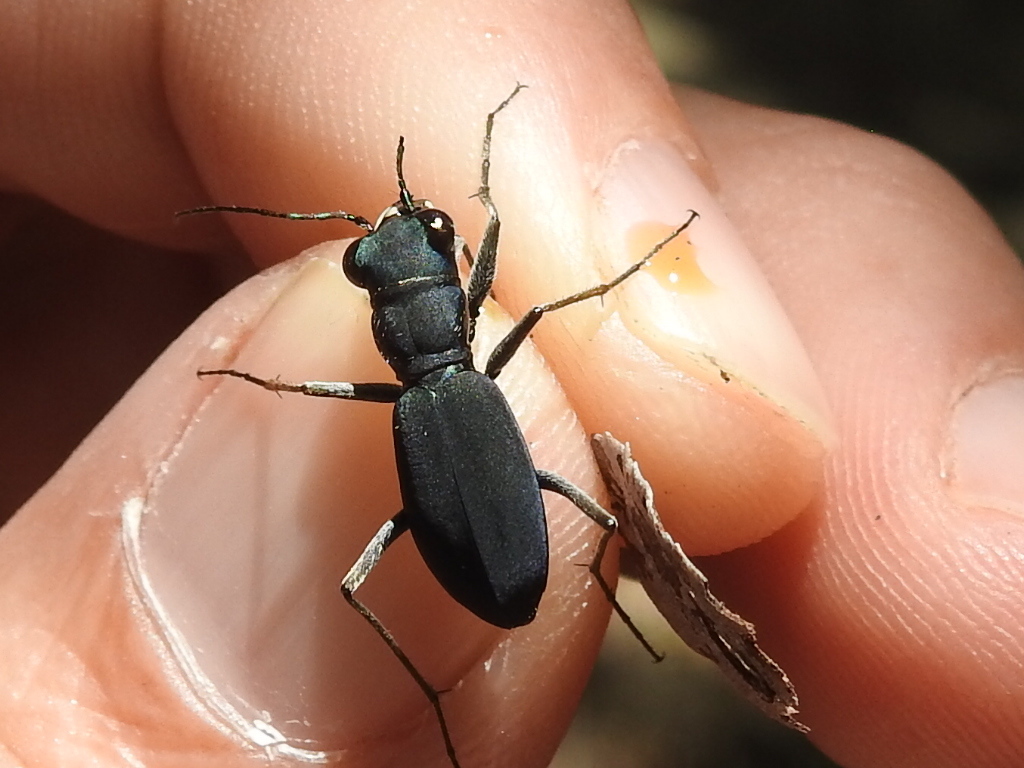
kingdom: Animalia
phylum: Arthropoda
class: Insecta
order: Coleoptera
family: Carabidae
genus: Dromochorus
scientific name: Dromochorus pruininus
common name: Frosted dromo tiger beetle
